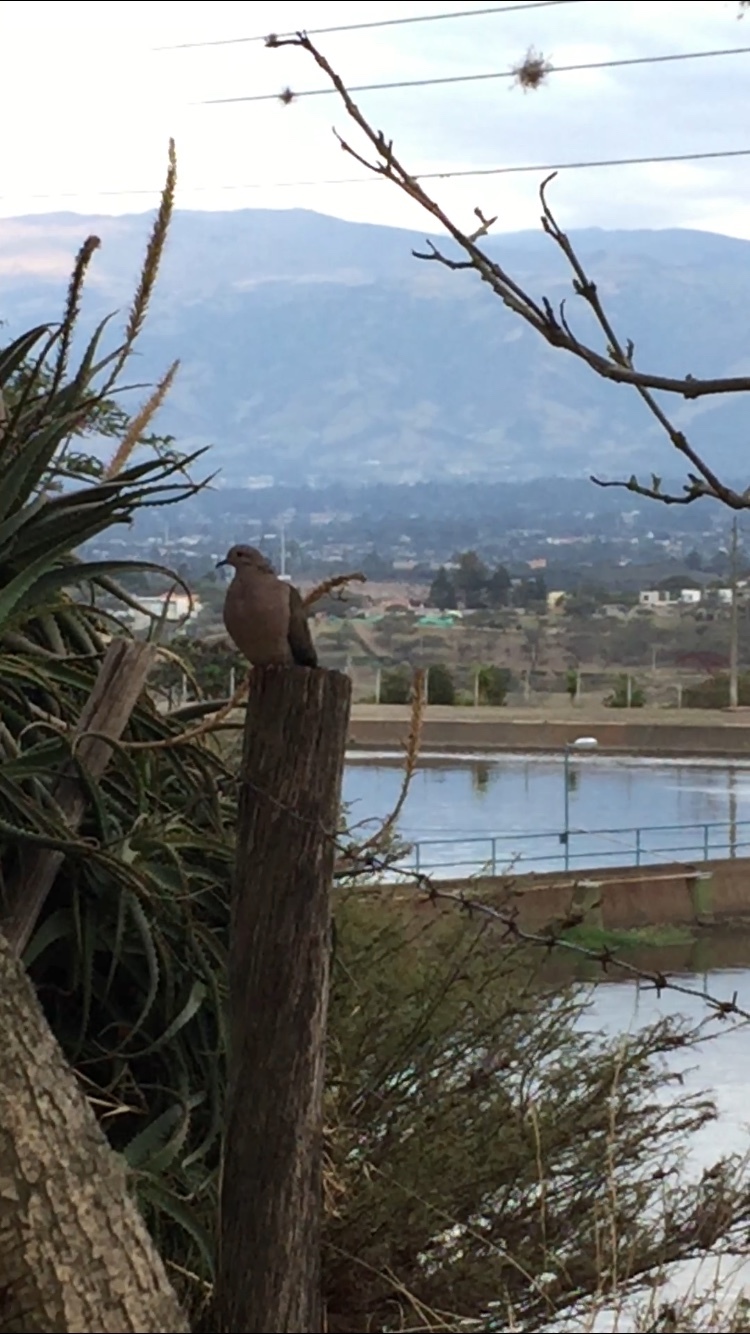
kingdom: Animalia
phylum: Chordata
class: Aves
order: Columbiformes
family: Columbidae
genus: Zenaida
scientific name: Zenaida auriculata
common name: Eared dove
